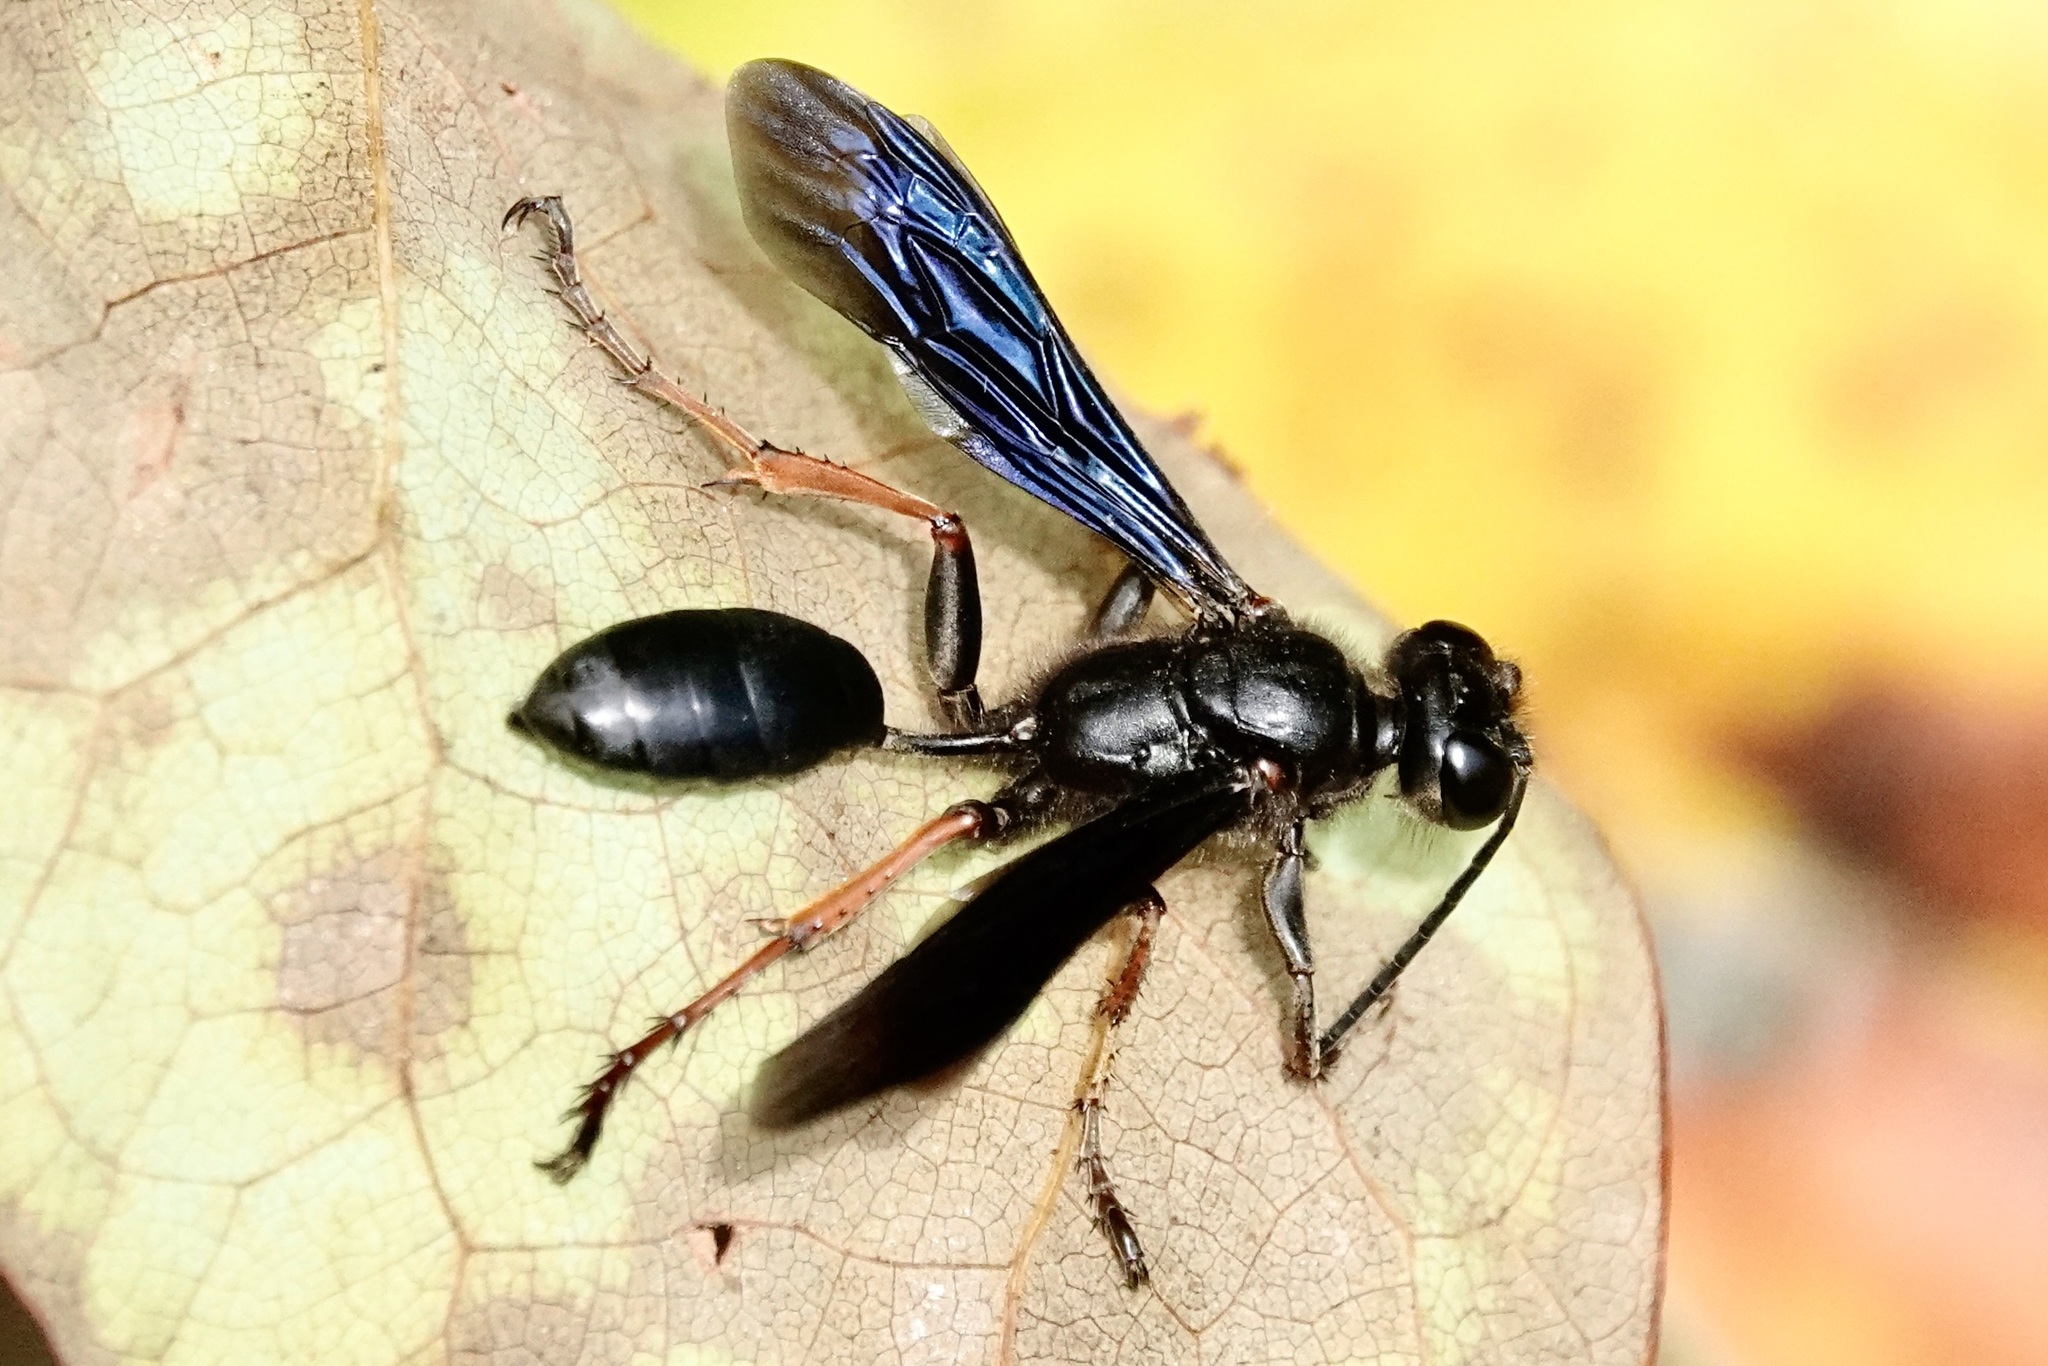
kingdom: Animalia
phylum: Arthropoda
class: Insecta
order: Hymenoptera
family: Sphecidae
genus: Isodontia
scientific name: Isodontia auripes
